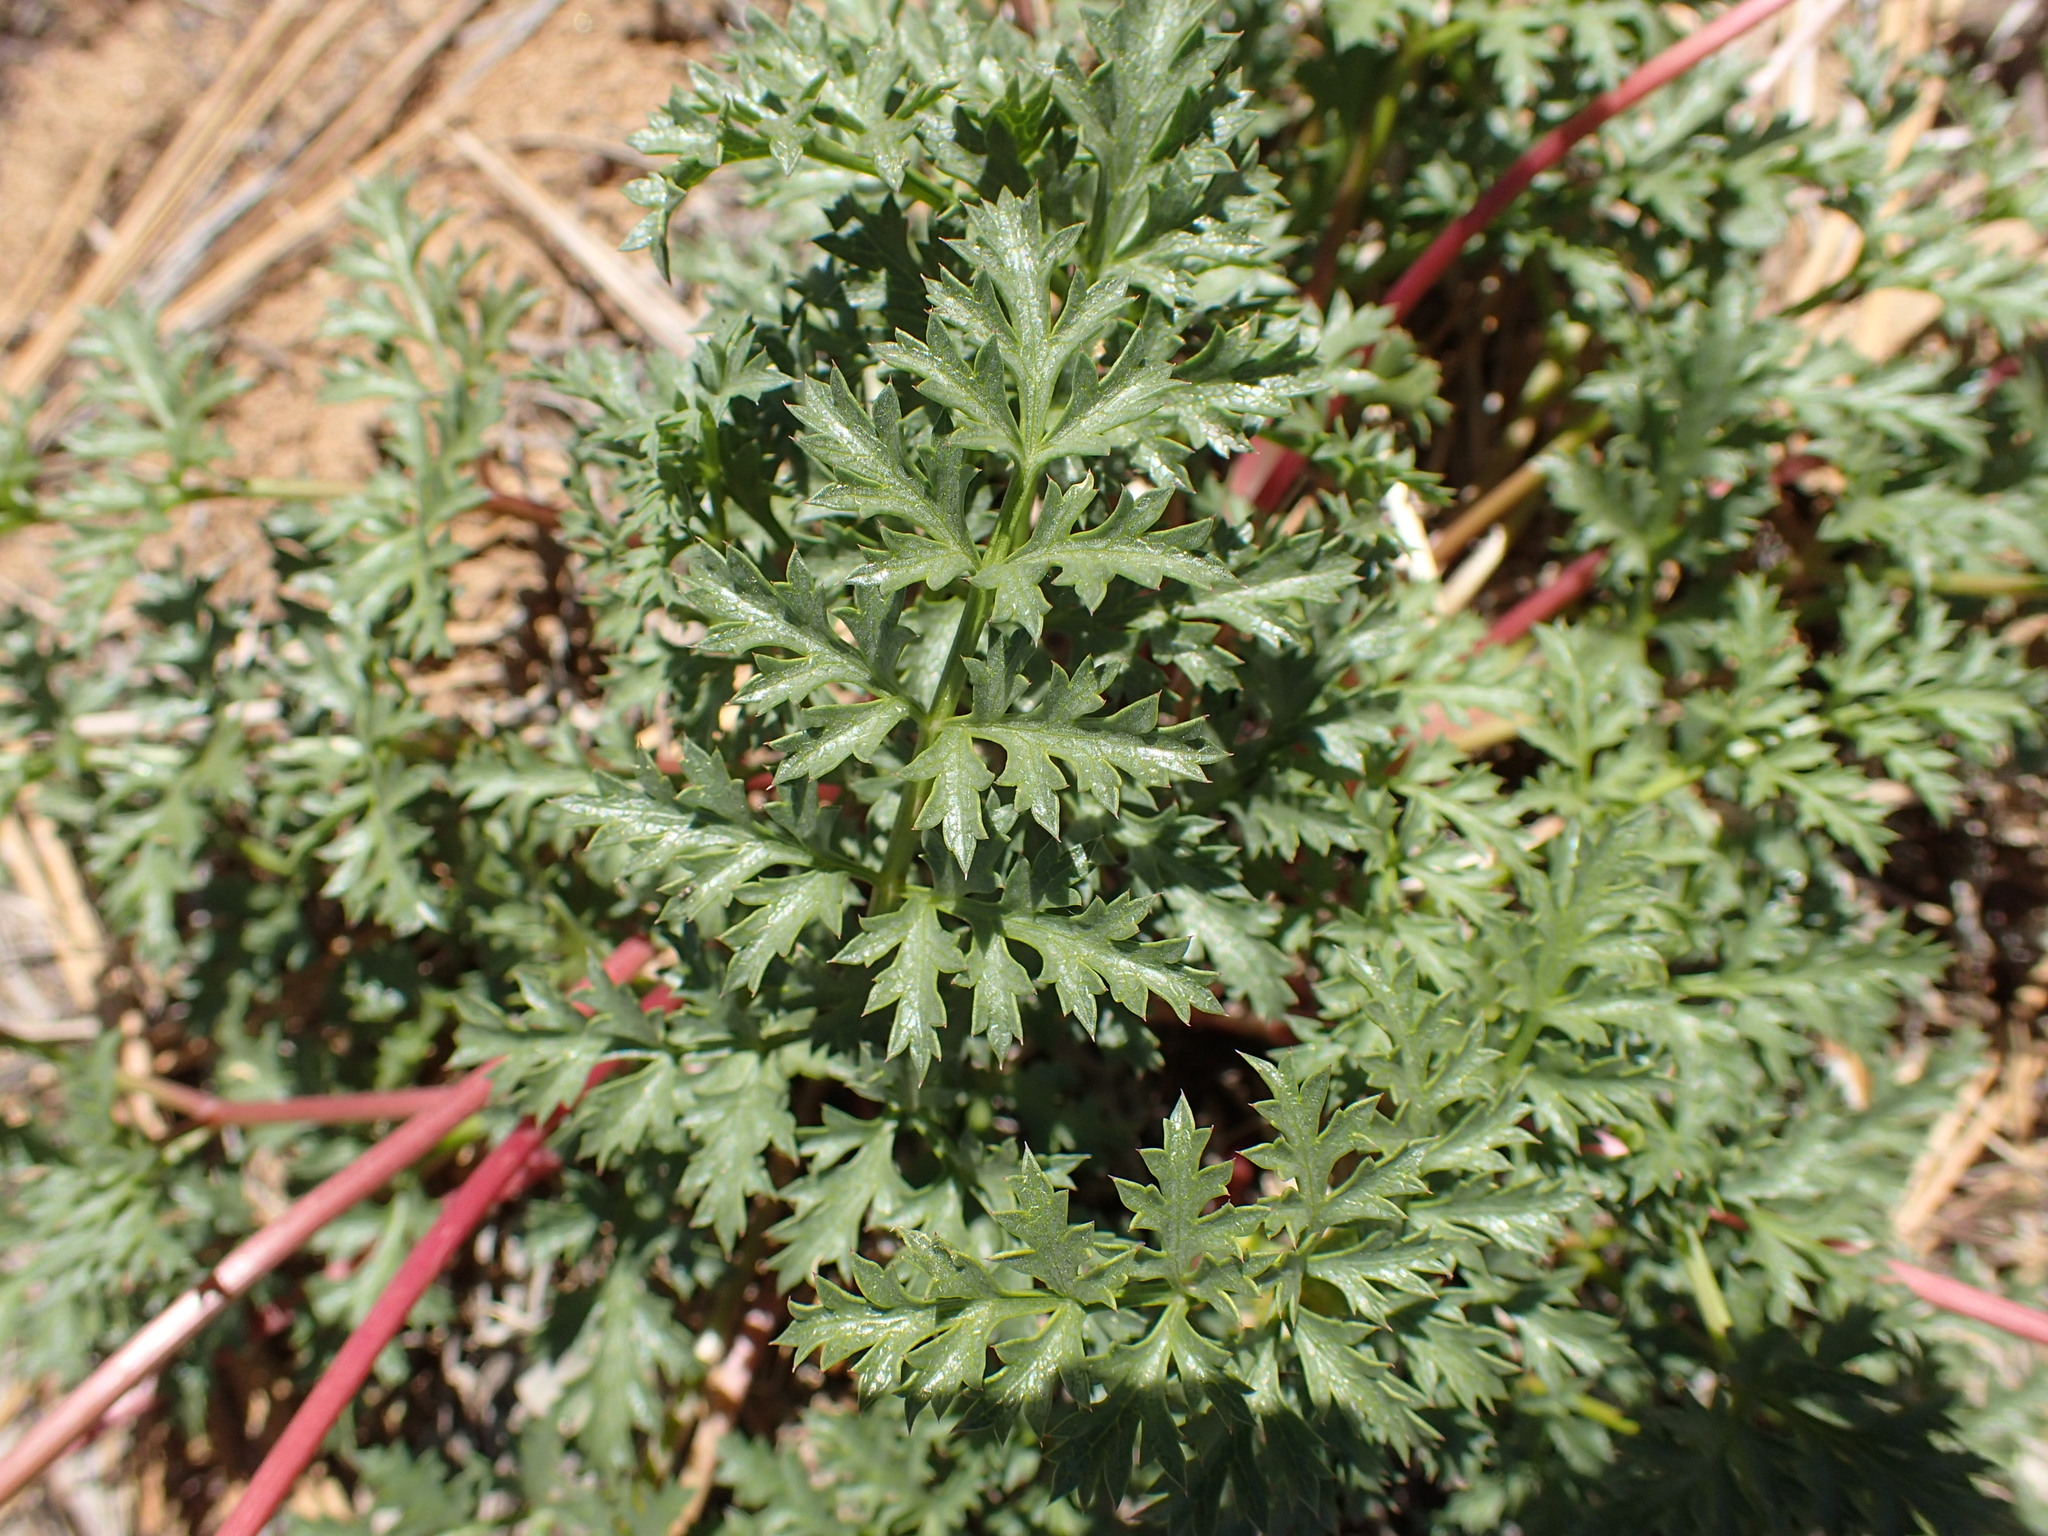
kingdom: Plantae
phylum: Tracheophyta
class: Magnoliopsida
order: Apiales
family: Apiaceae
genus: Tauschia
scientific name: Tauschia parishii
